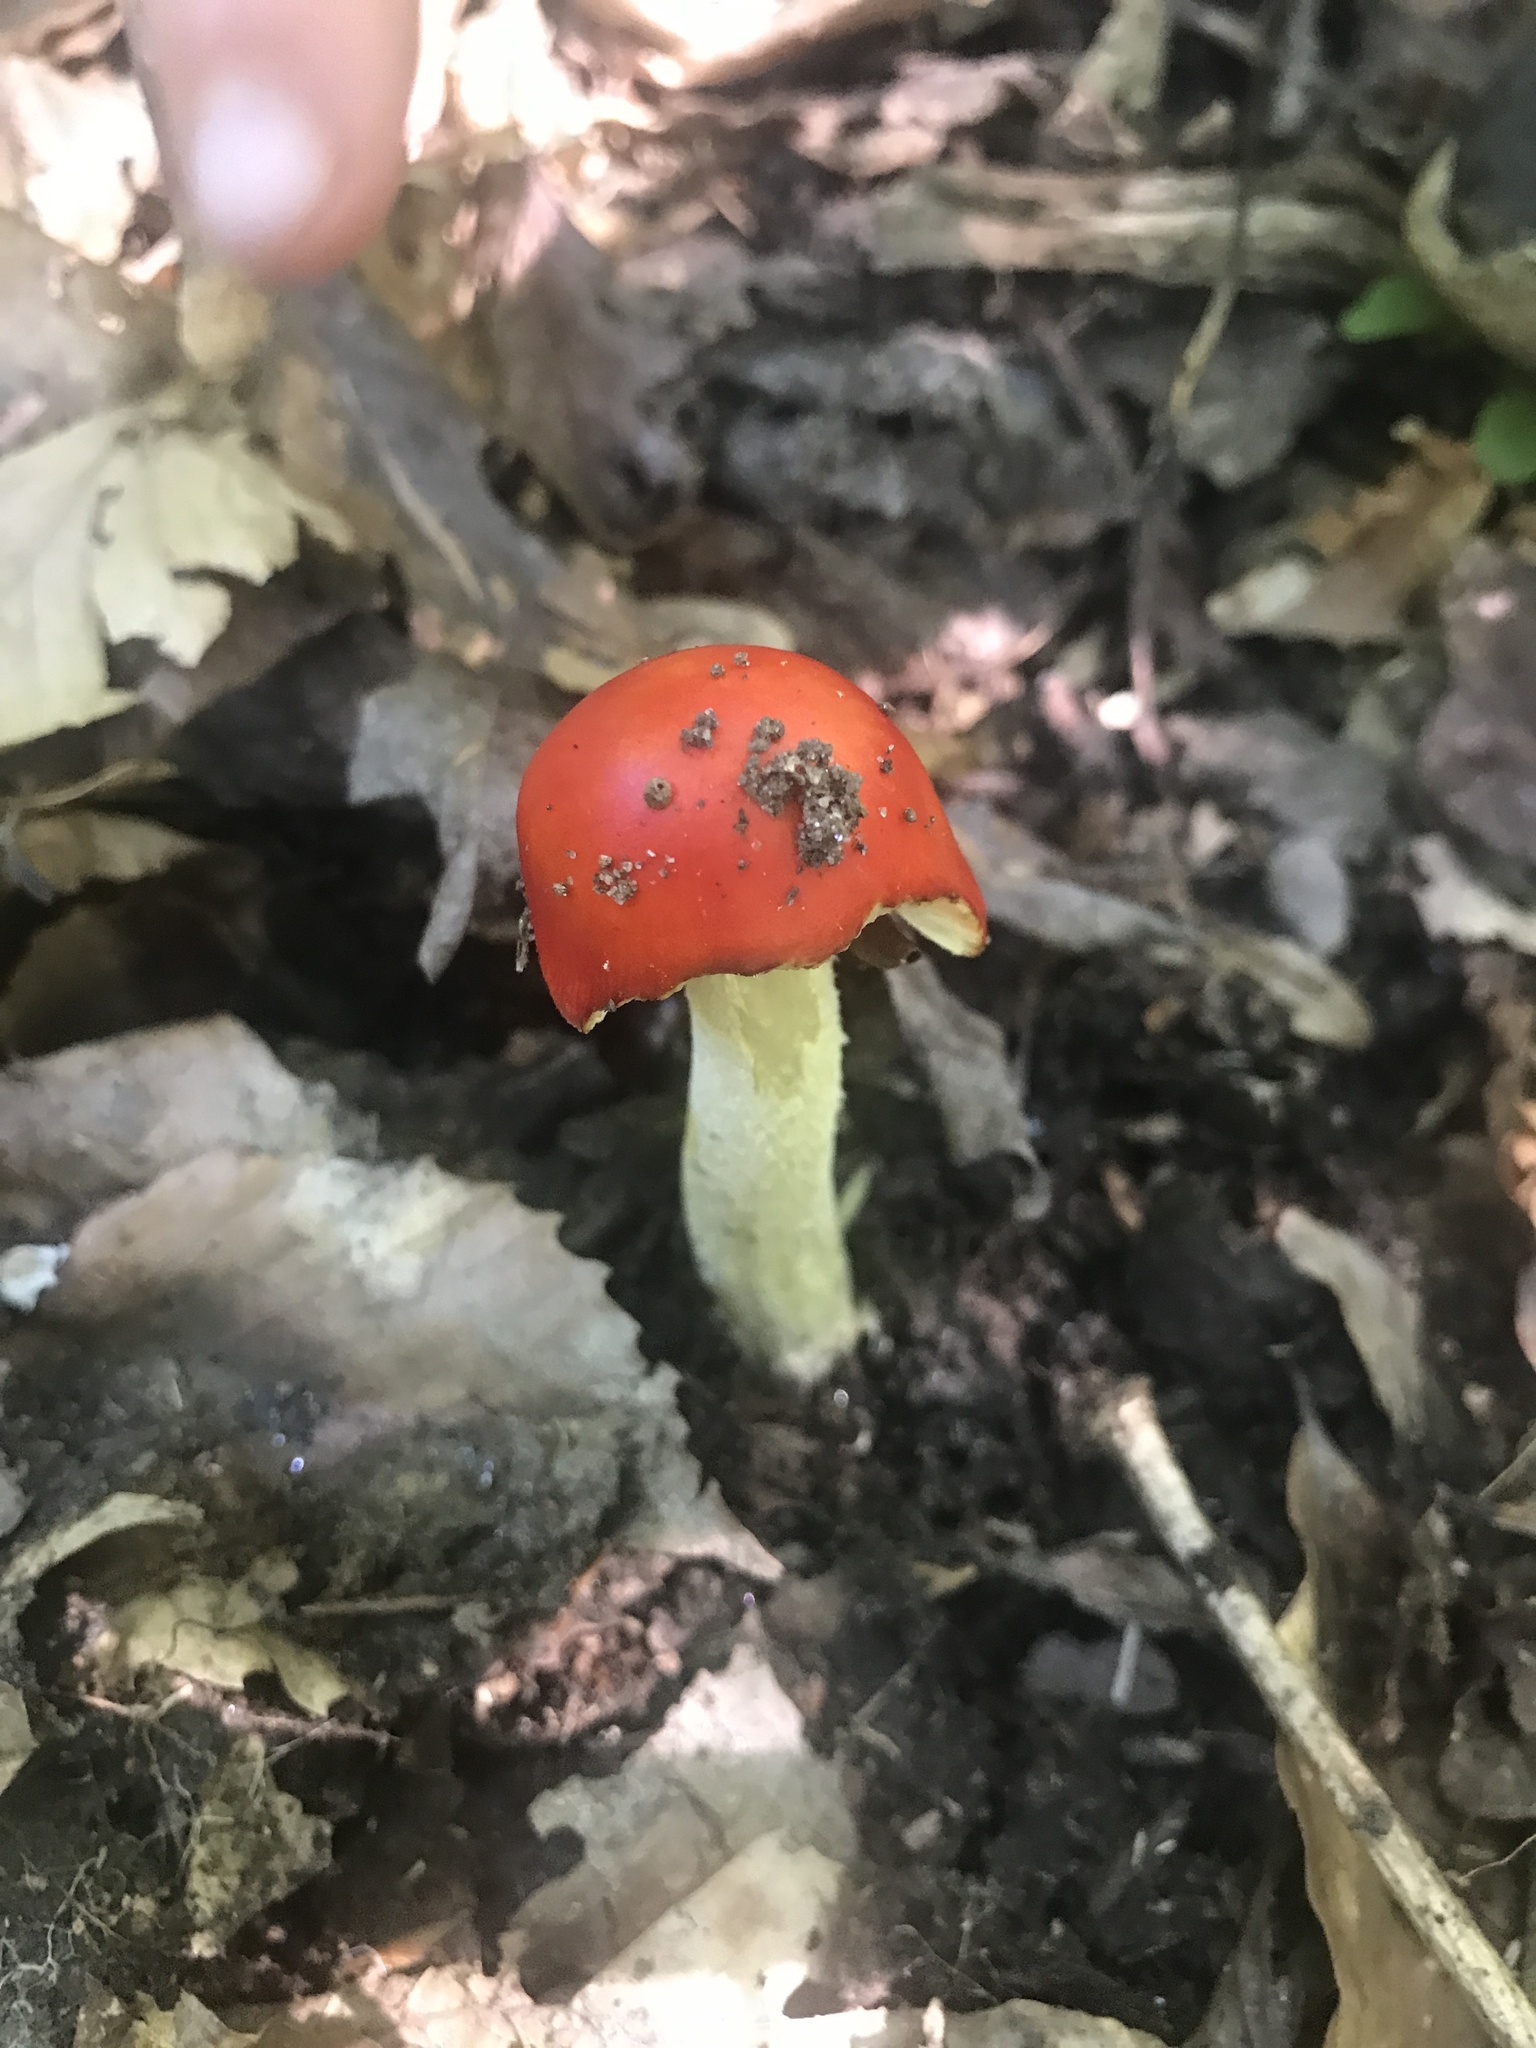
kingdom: Fungi
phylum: Basidiomycota
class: Agaricomycetes
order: Agaricales
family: Amanitaceae
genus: Amanita
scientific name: Amanita parcivolvata
